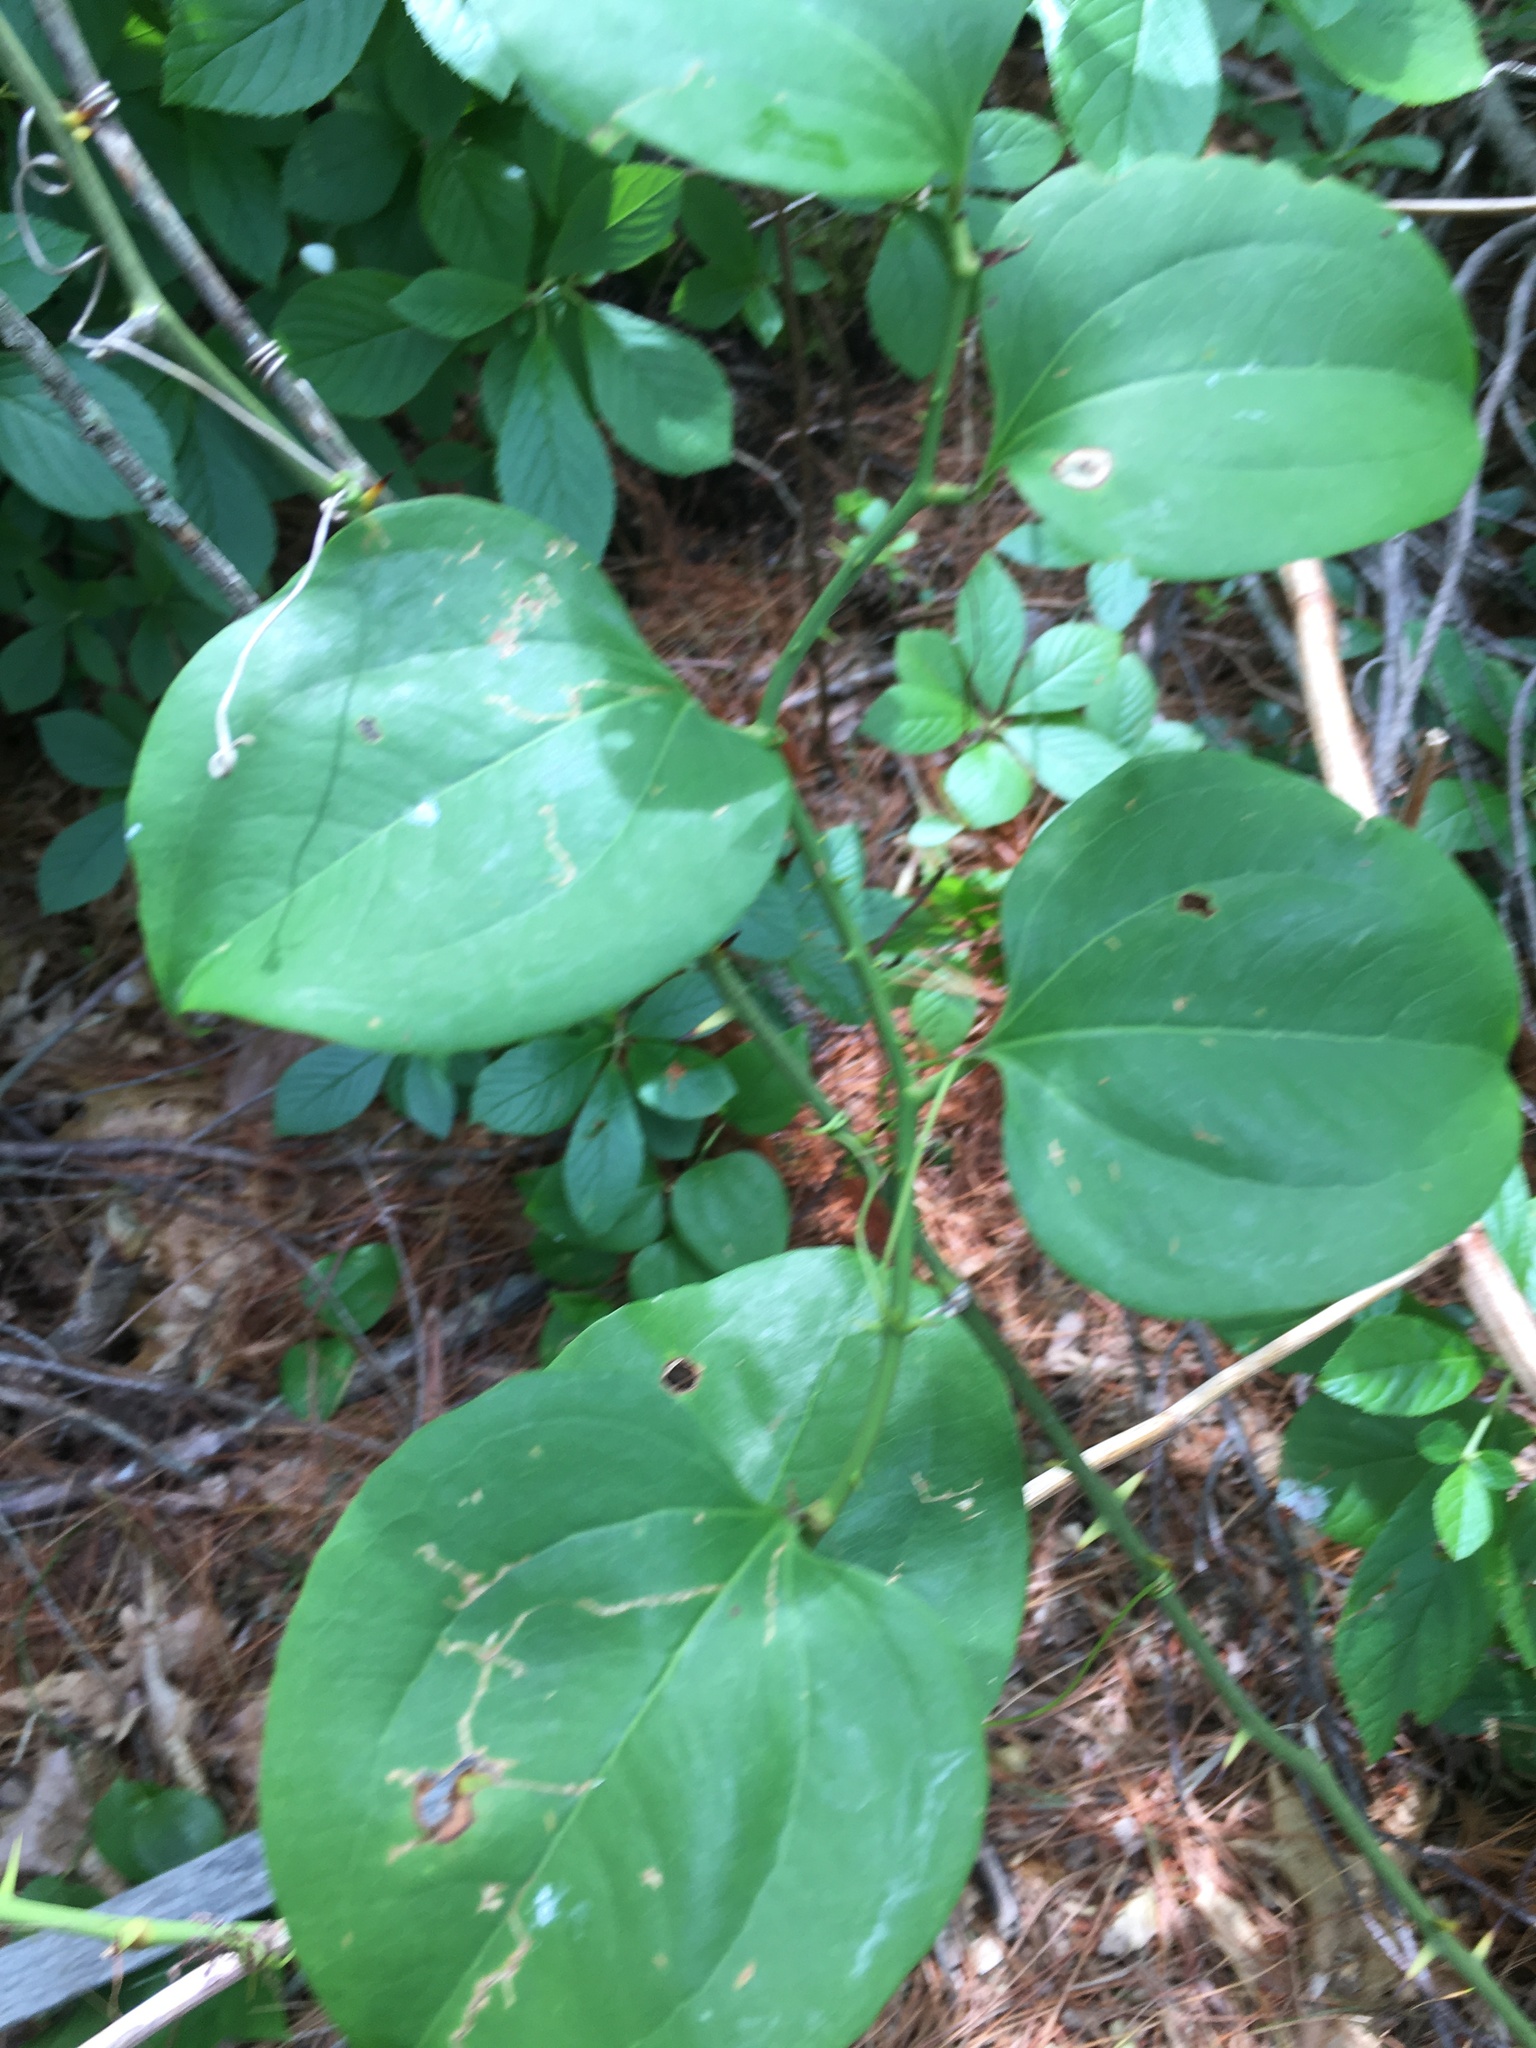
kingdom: Plantae
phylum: Tracheophyta
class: Liliopsida
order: Liliales
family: Smilacaceae
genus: Smilax
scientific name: Smilax rotundifolia
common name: Bullbriar
